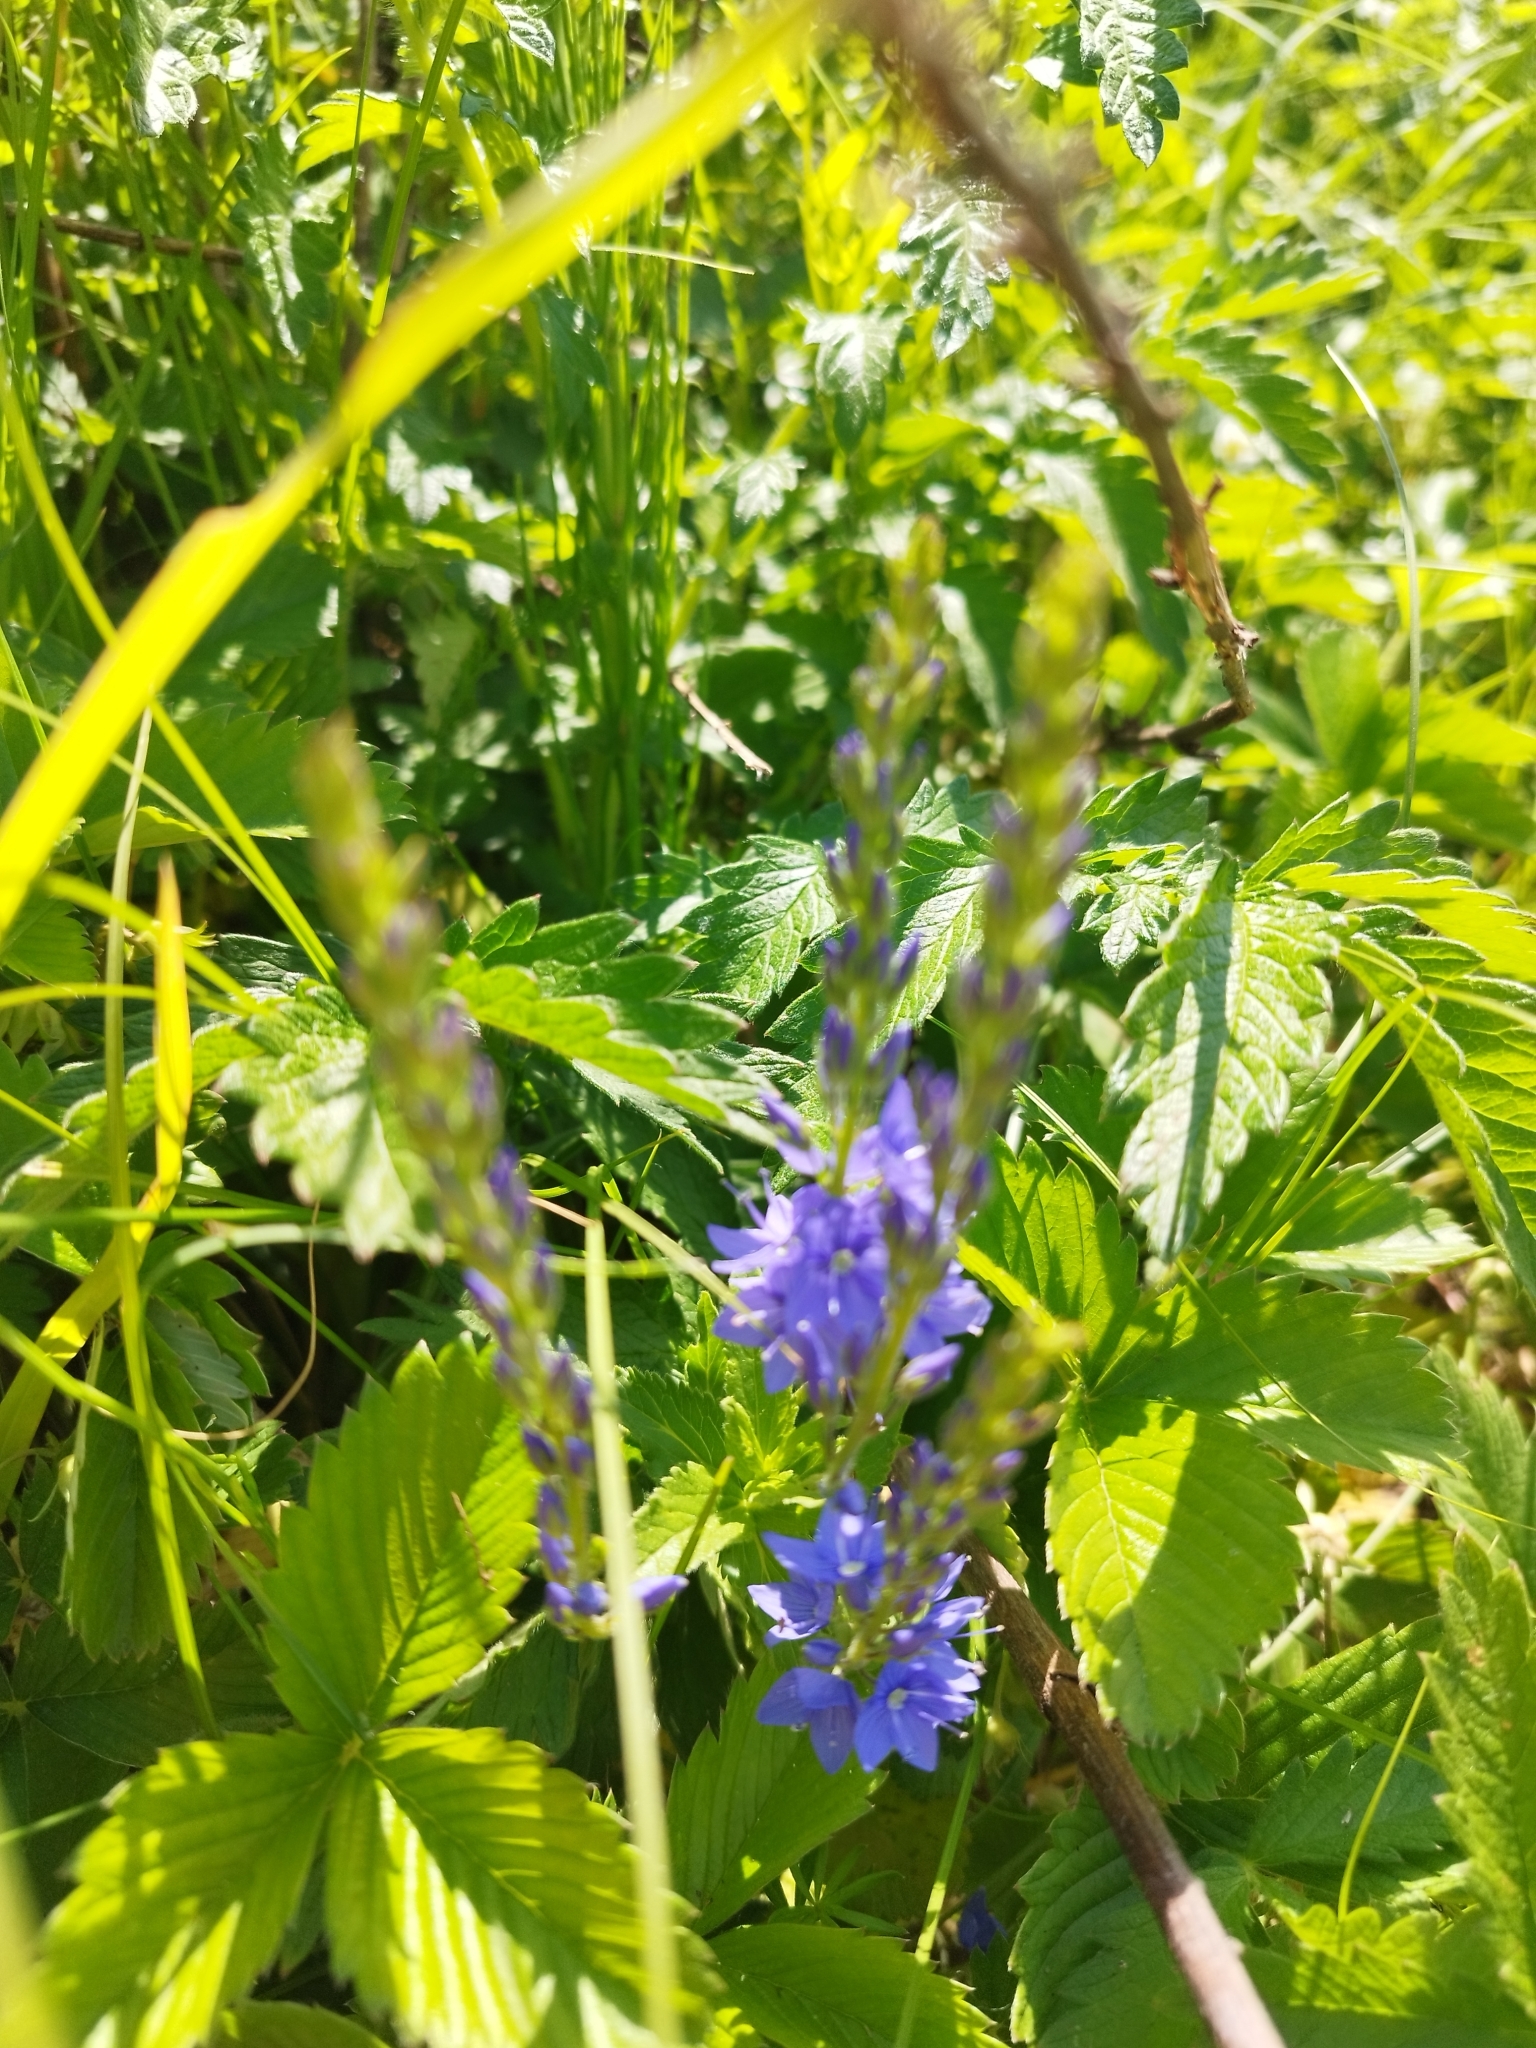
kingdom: Plantae
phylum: Tracheophyta
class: Magnoliopsida
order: Lamiales
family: Plantaginaceae
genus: Veronica
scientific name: Veronica teucrium
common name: Large speedwell
